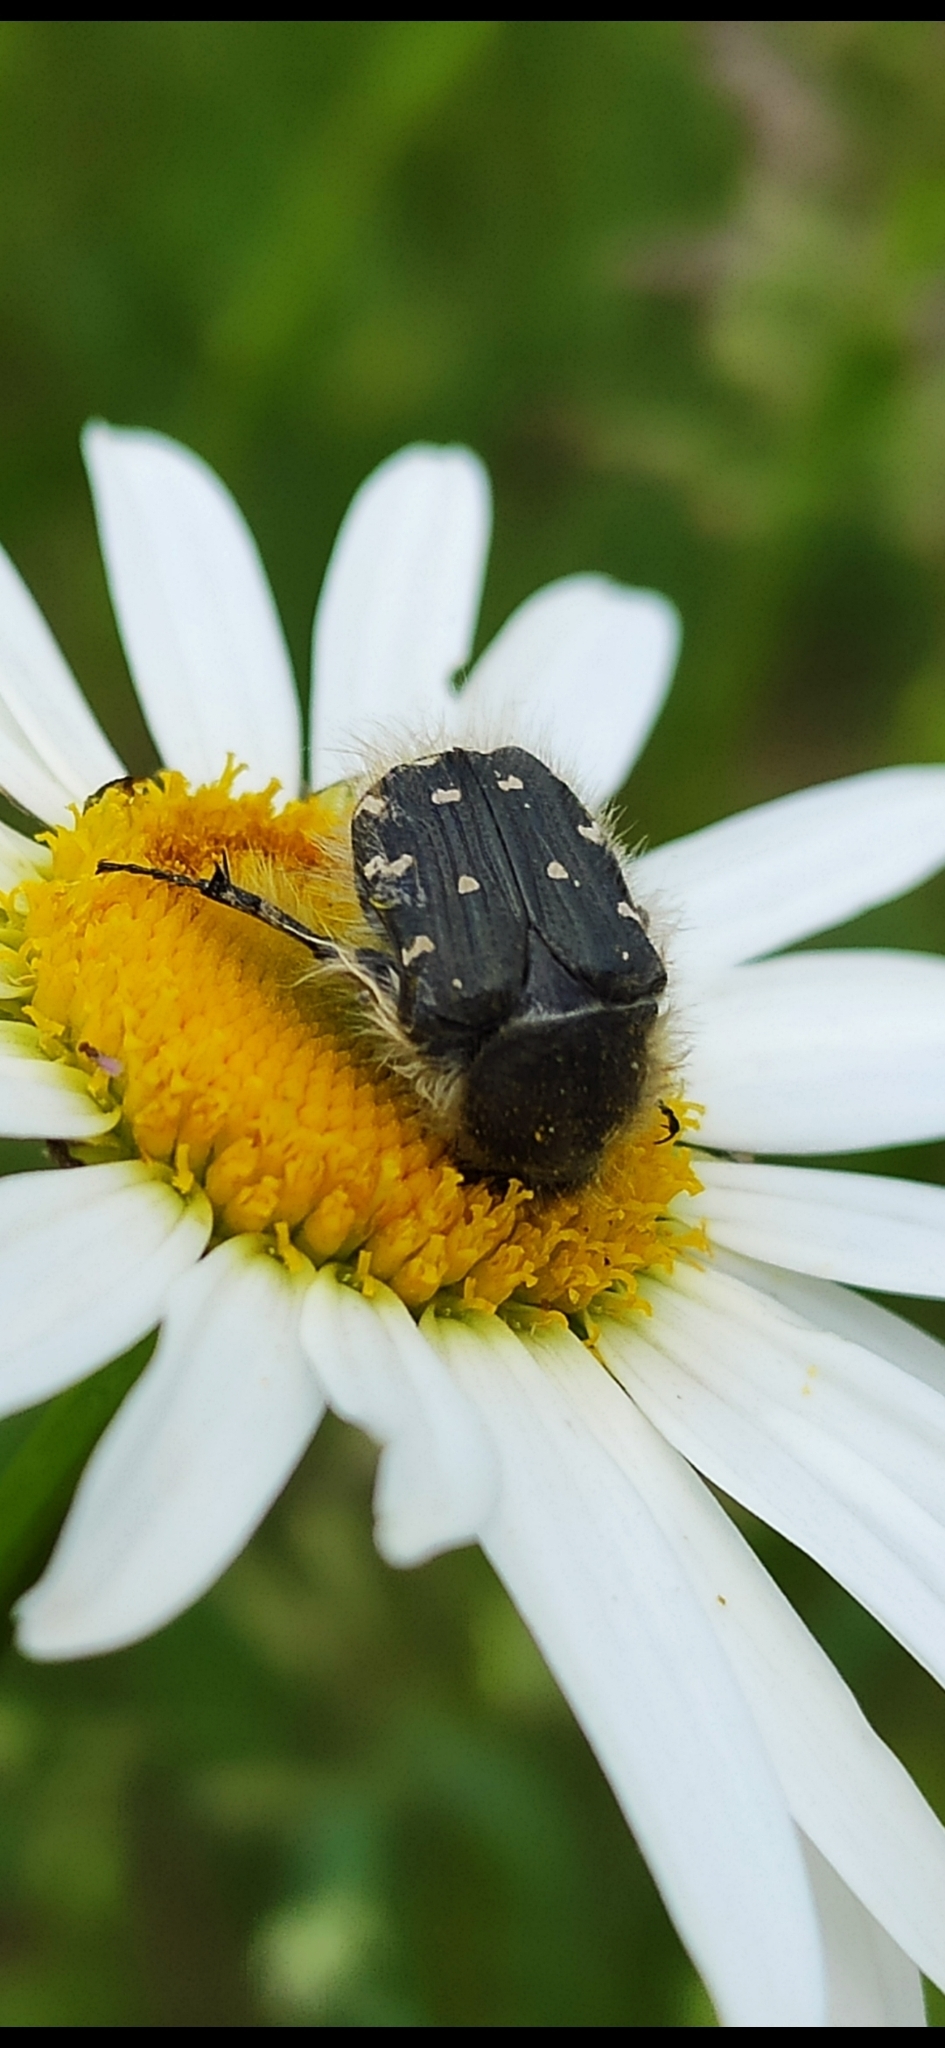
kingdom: Animalia
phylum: Arthropoda
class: Insecta
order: Coleoptera
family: Scarabaeidae
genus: Tropinota
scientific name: Tropinota hirta
